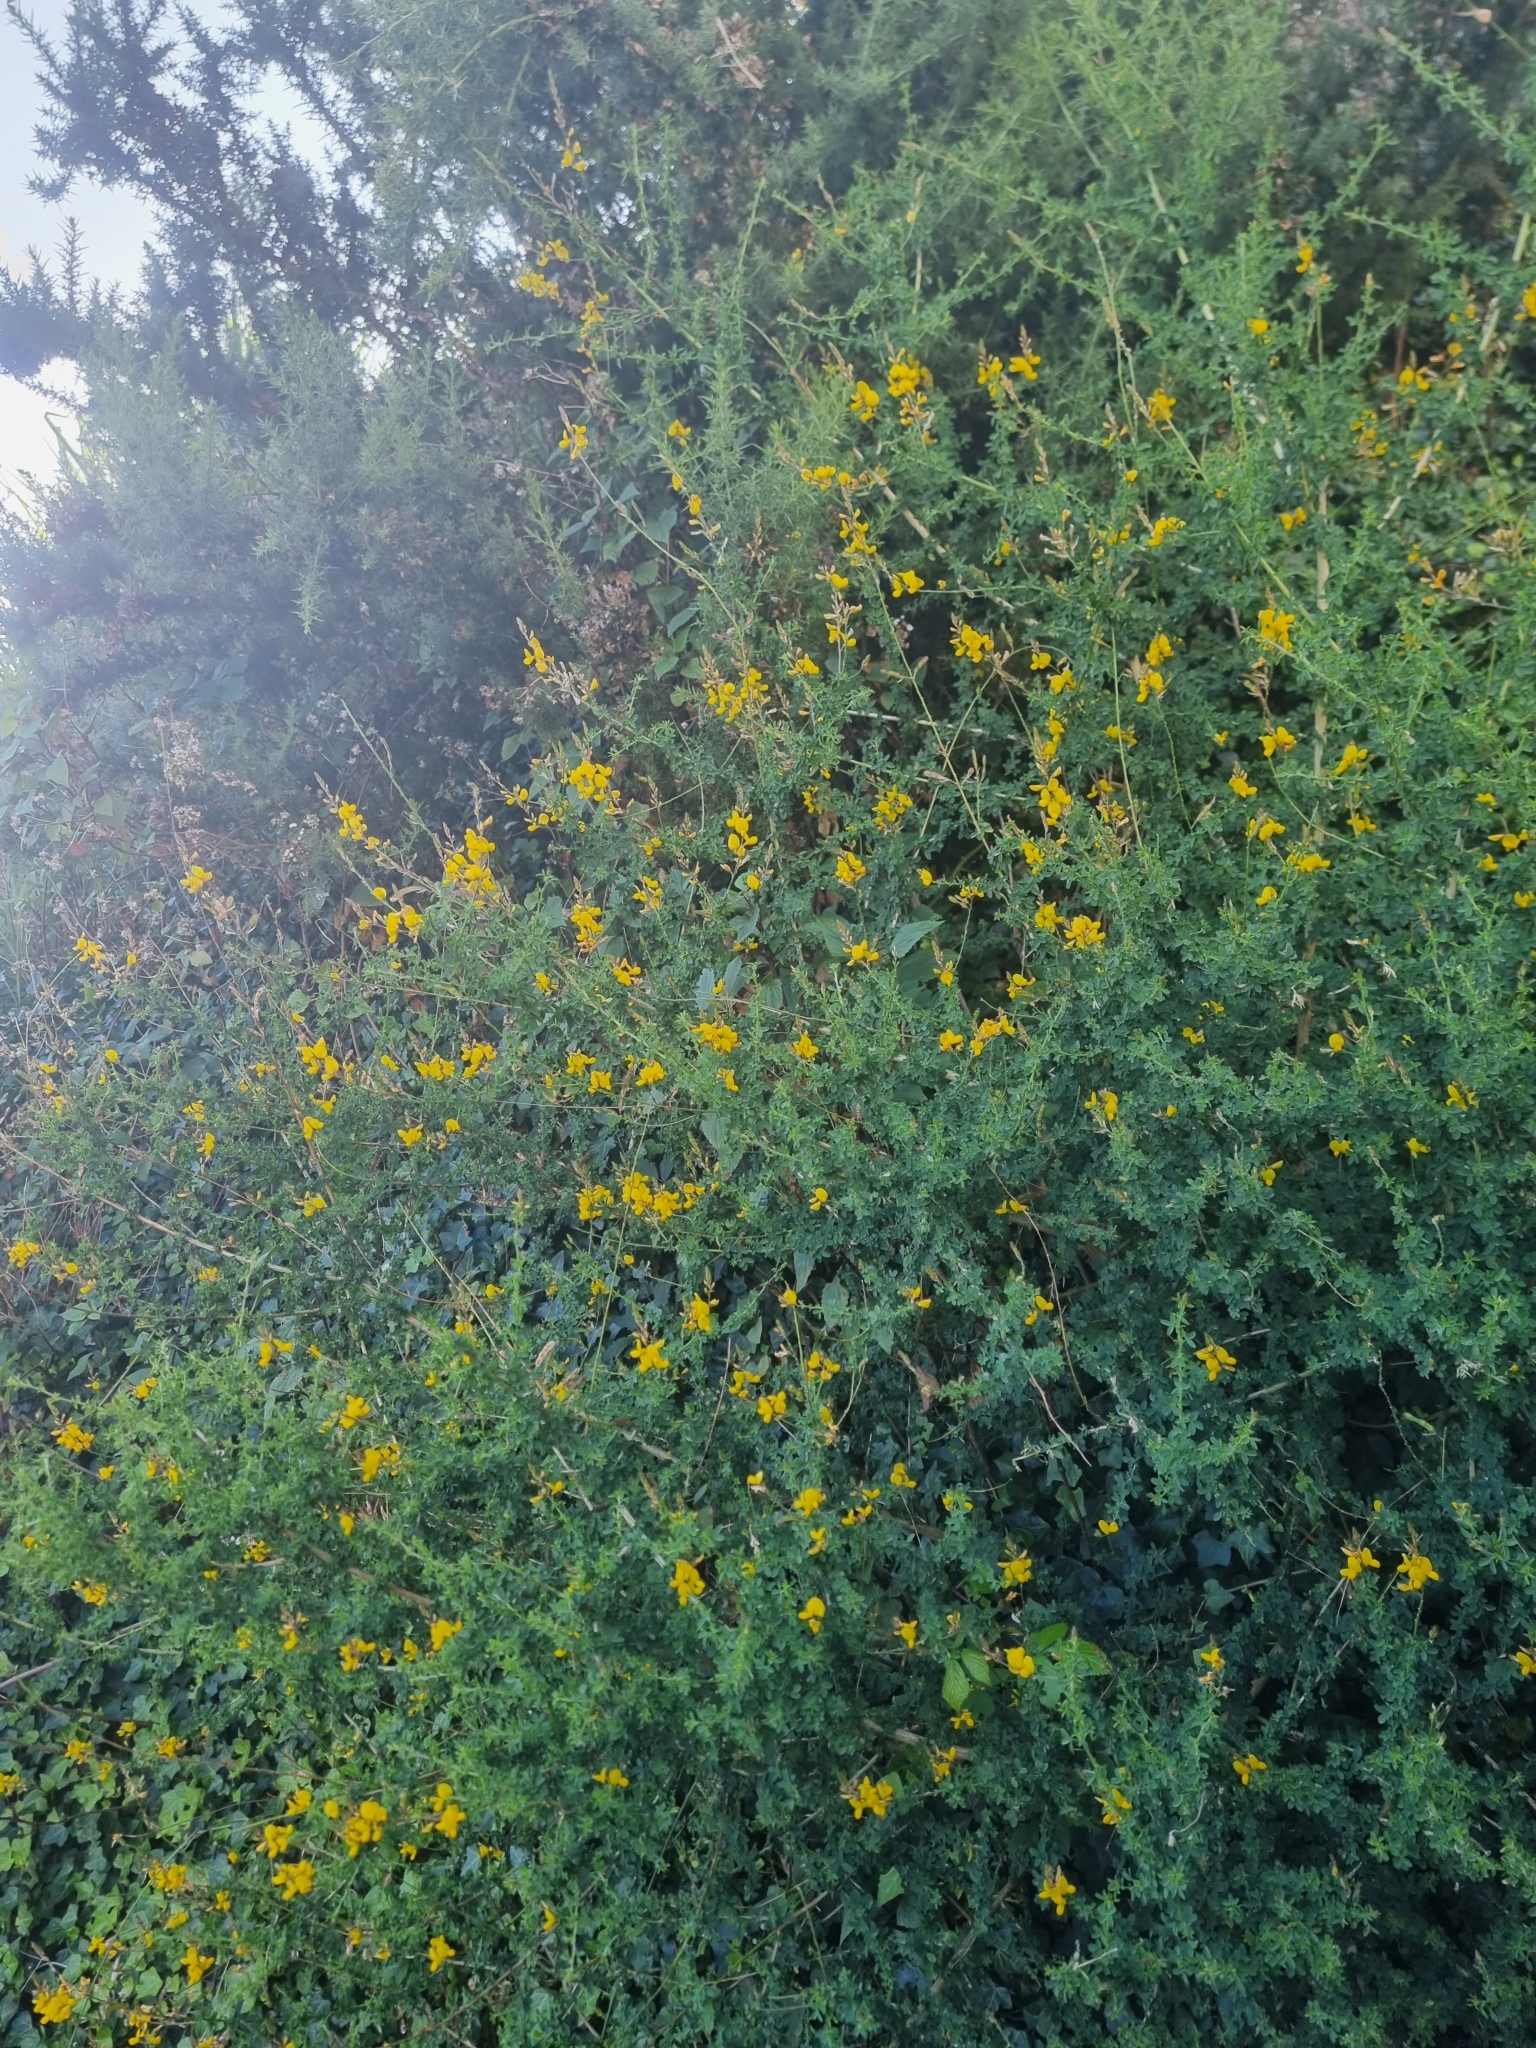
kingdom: Plantae
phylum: Tracheophyta
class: Magnoliopsida
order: Fabales
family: Fabaceae
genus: Genista
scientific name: Genista maderensis
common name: Madeira dyer's greenweed
